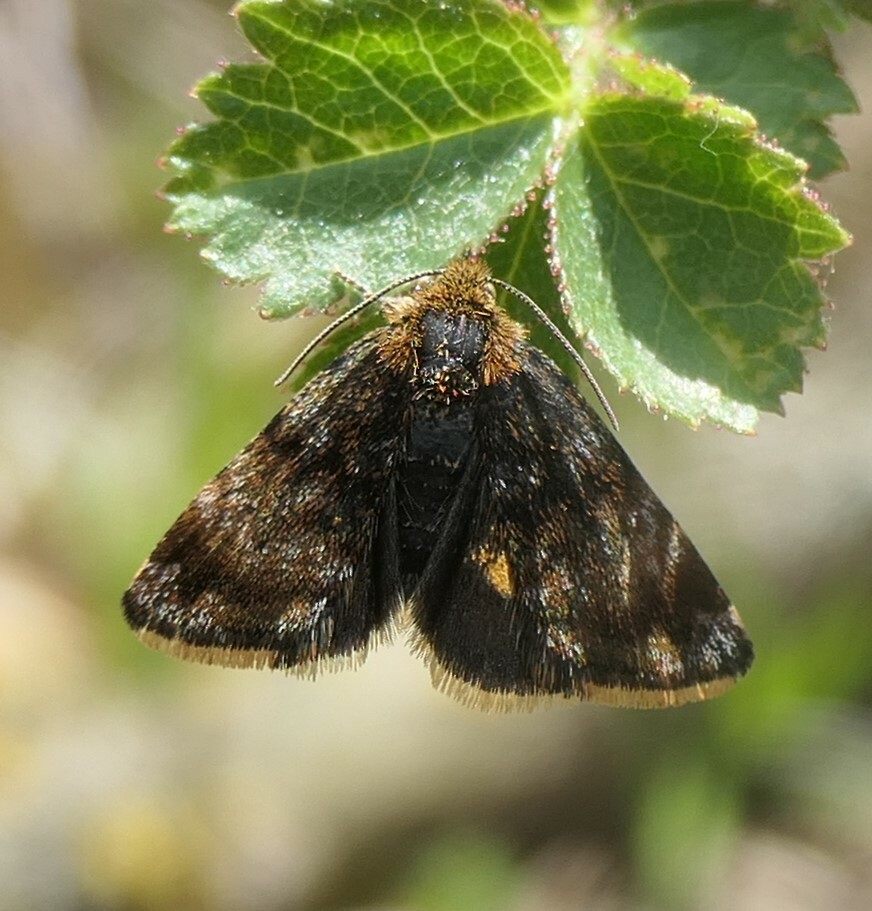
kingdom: Animalia
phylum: Arthropoda
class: Insecta
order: Lepidoptera
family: Noctuidae
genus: Panemeria
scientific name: Panemeria tenebrata
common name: Small yellow underwing
